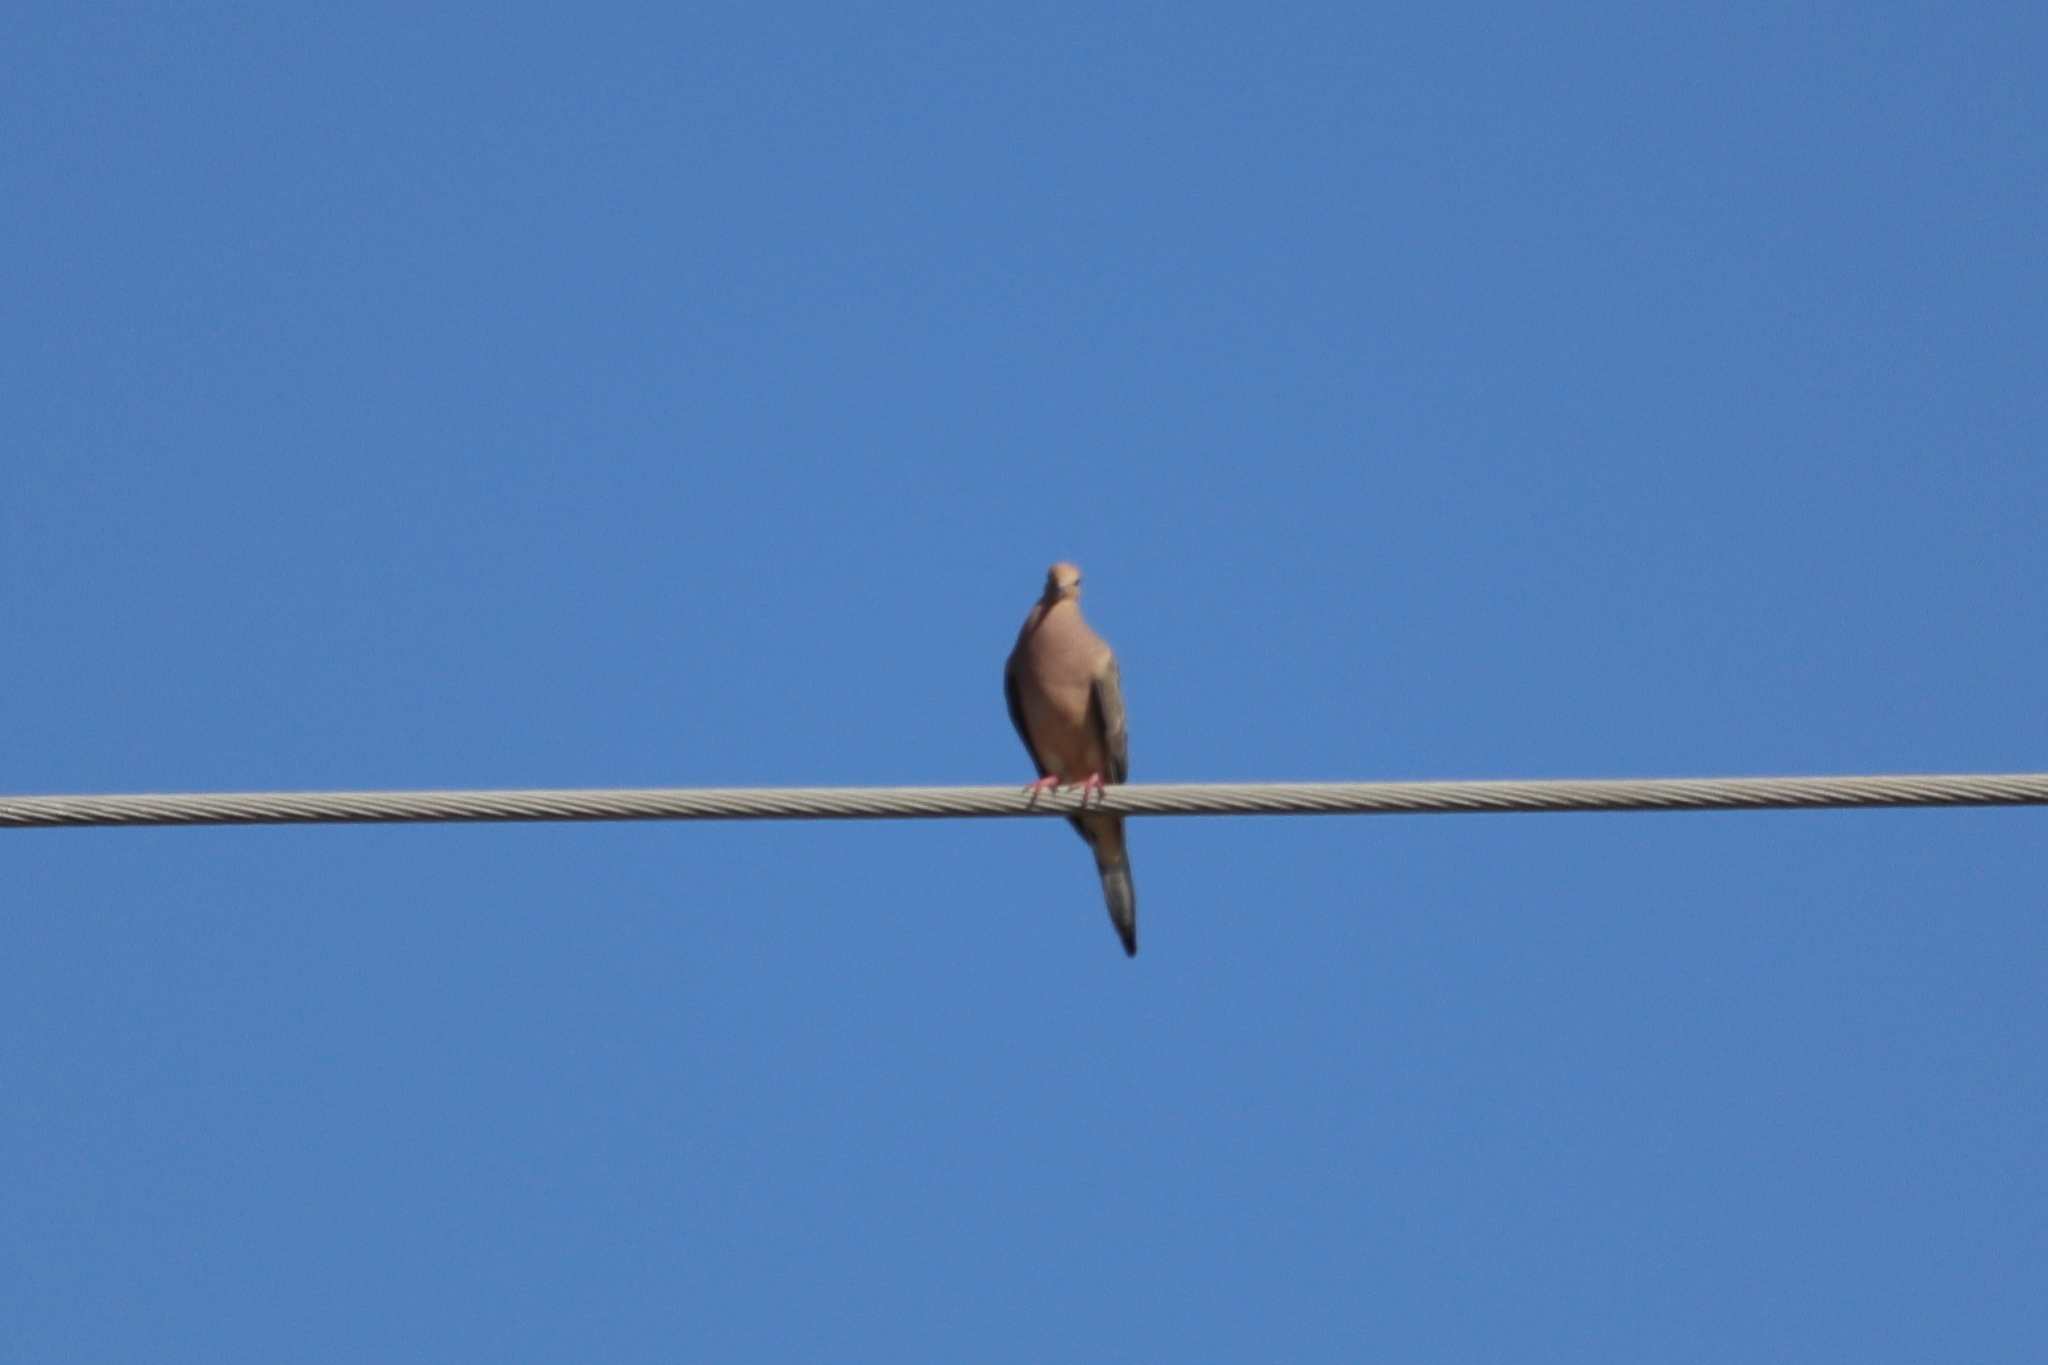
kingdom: Animalia
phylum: Chordata
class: Aves
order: Columbiformes
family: Columbidae
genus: Zenaida
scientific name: Zenaida macroura
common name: Mourning dove
